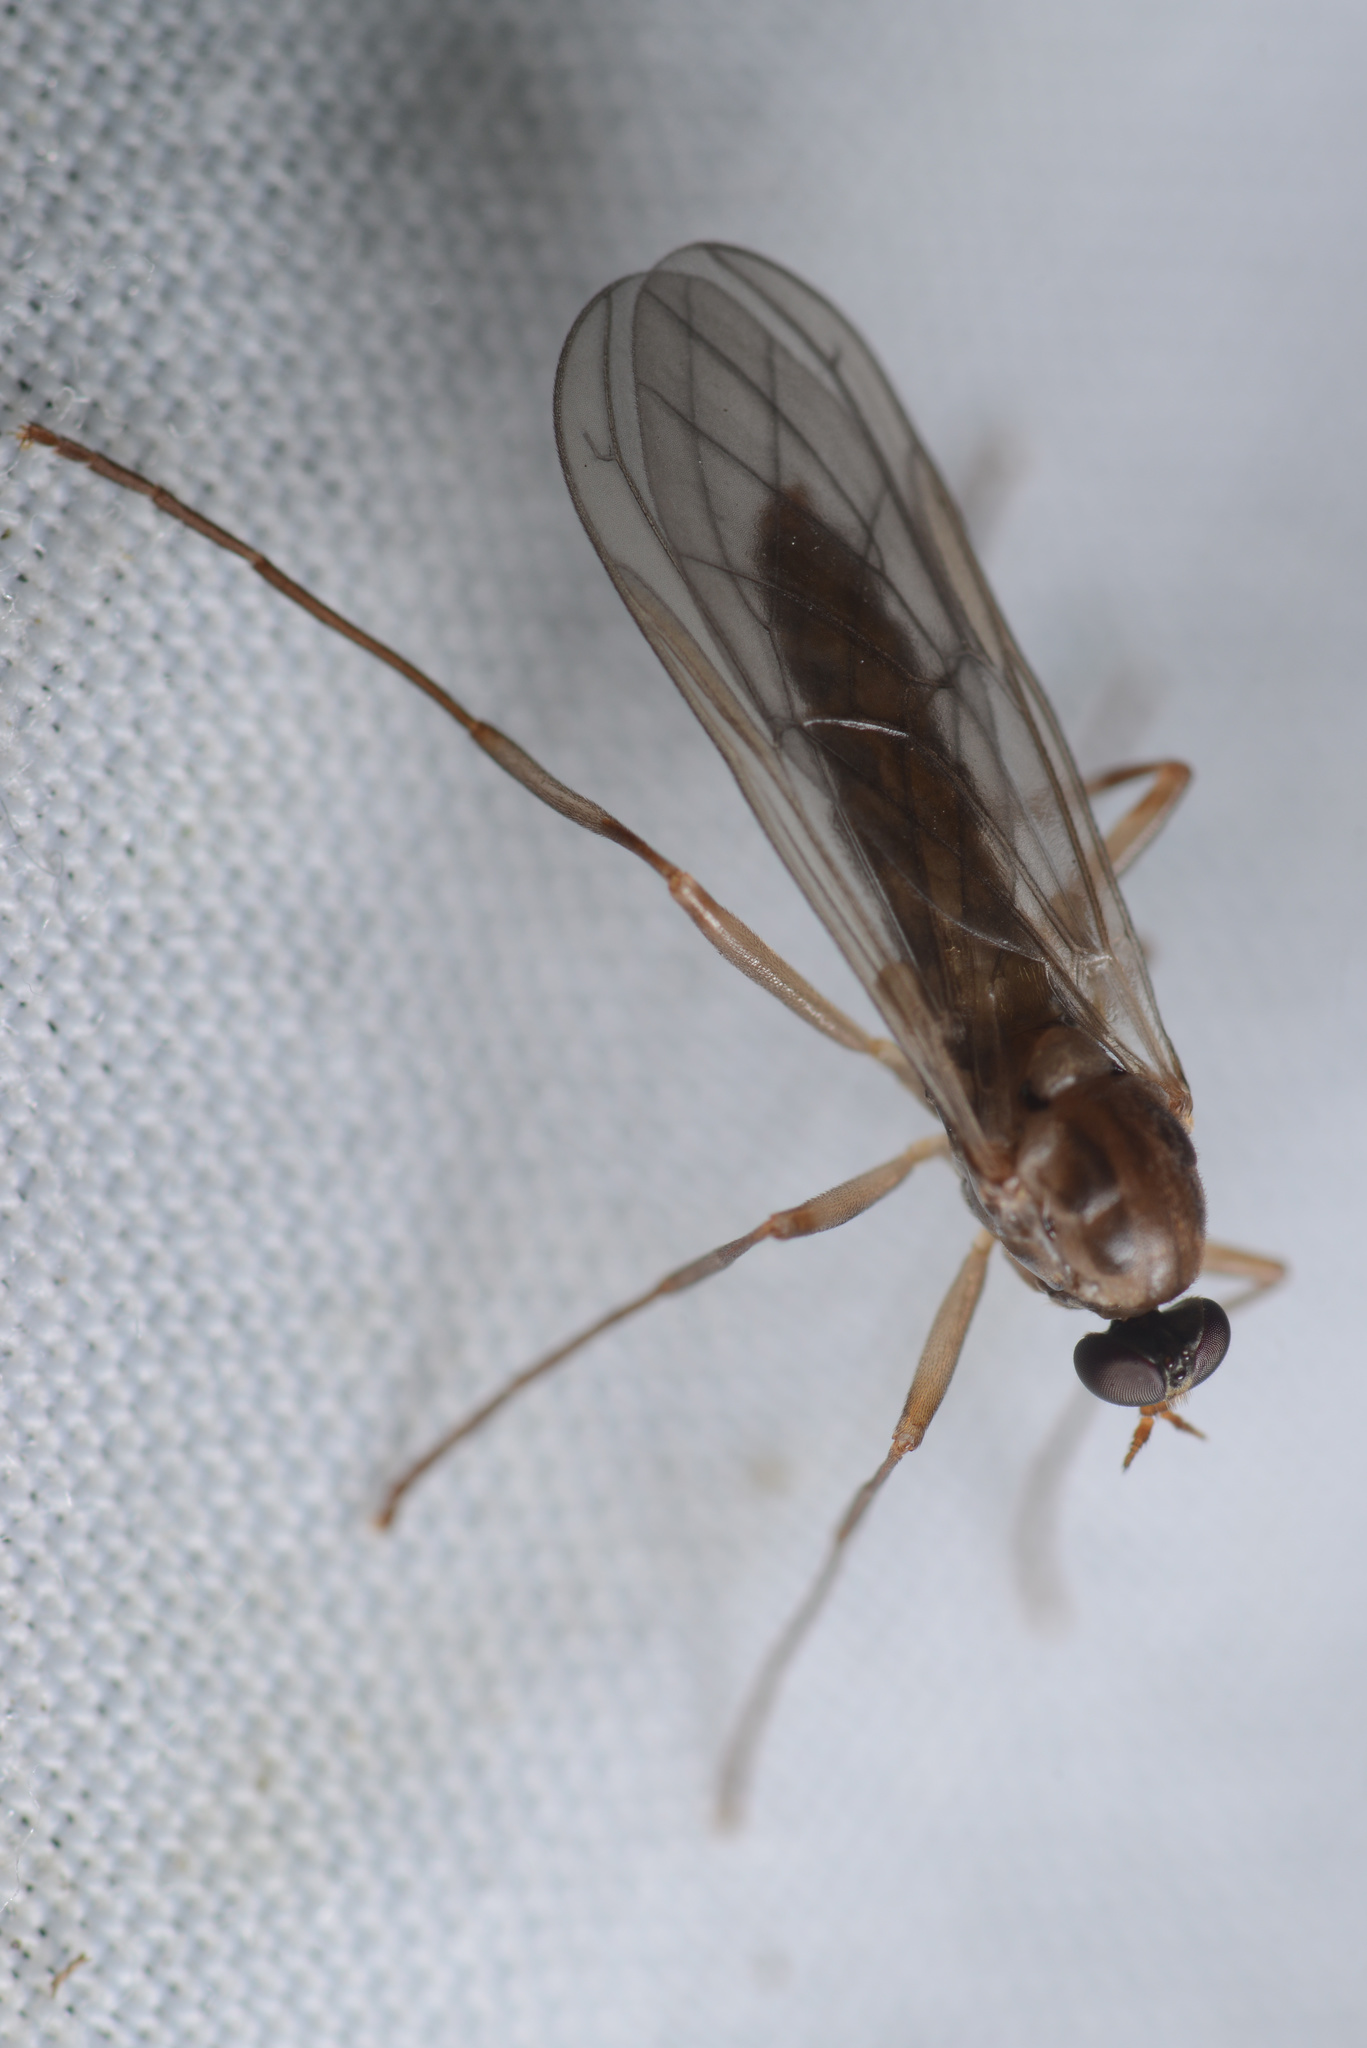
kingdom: Animalia
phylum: Arthropoda
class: Insecta
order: Diptera
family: Stratiomyidae
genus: Boreoides
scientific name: Boreoides tasmaniensis
